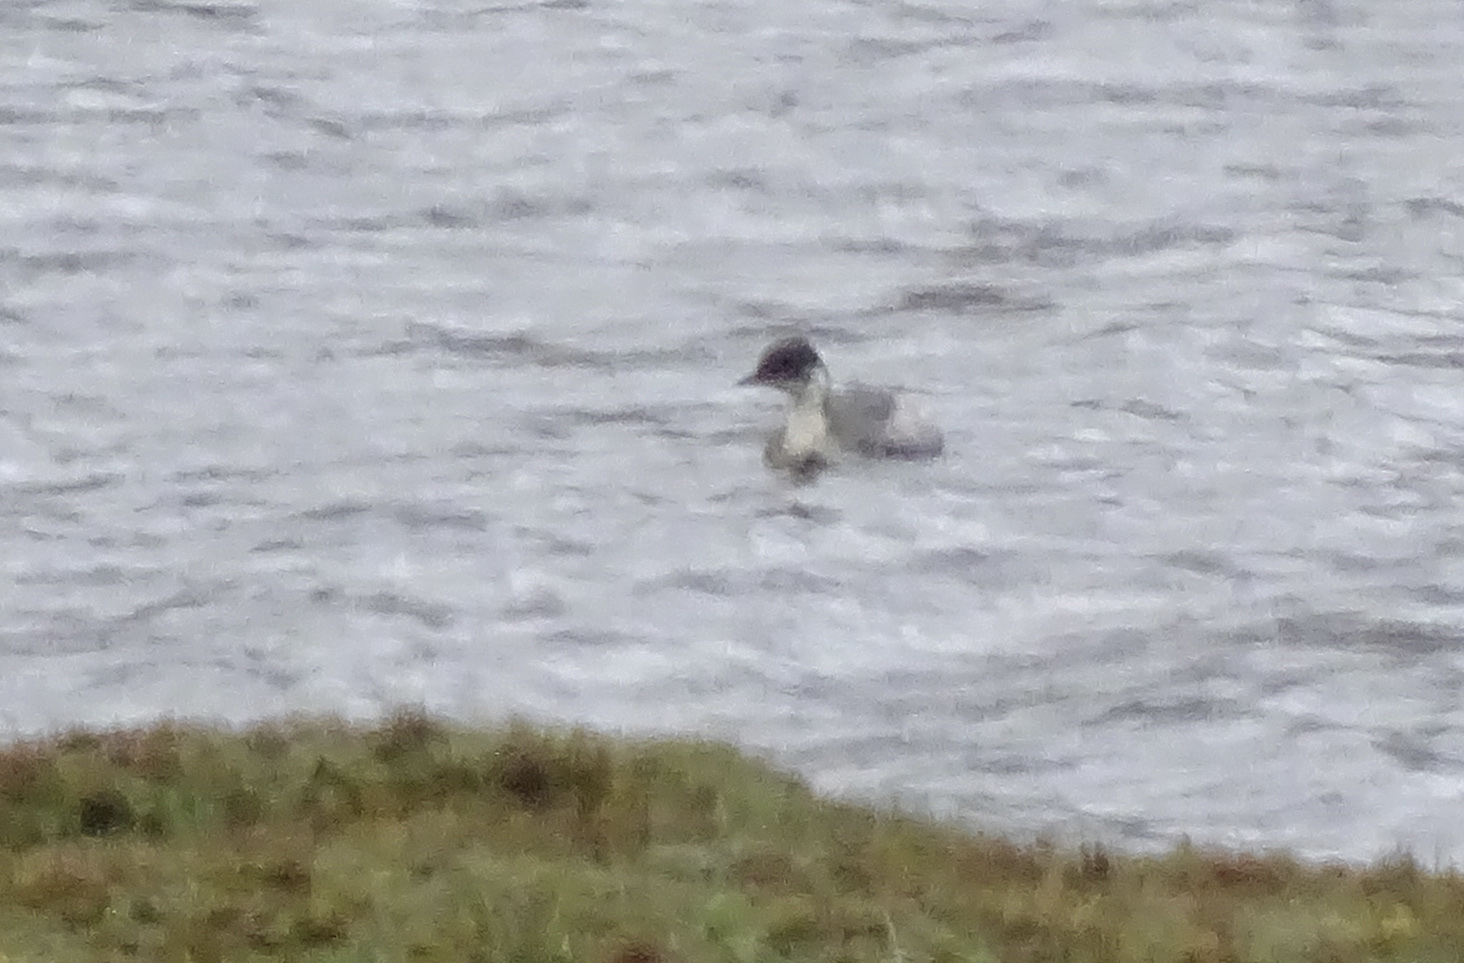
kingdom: Animalia
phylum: Chordata
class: Aves
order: Podicipediformes
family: Podicipedidae
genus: Podiceps
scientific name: Podiceps occipitalis
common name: Silvery grebe
